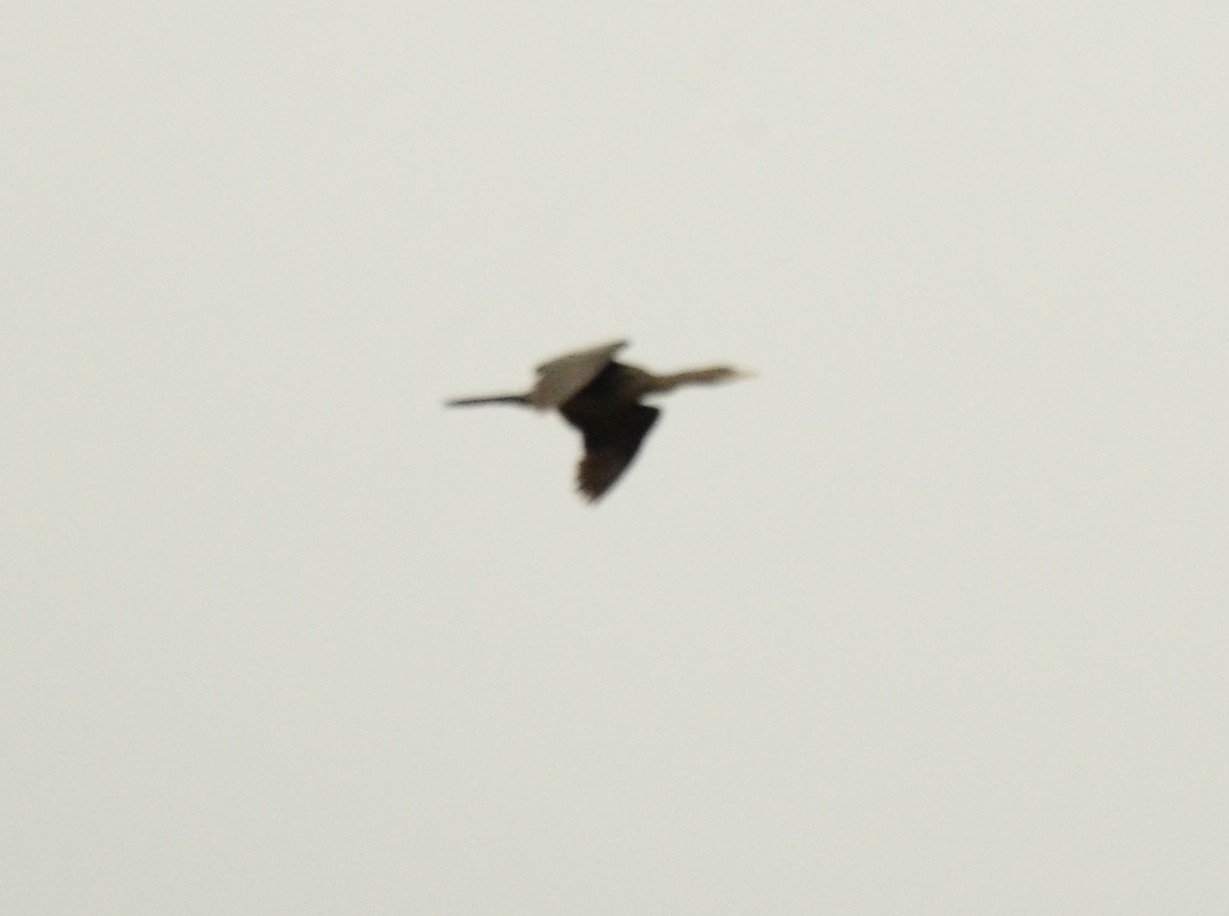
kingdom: Animalia
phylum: Chordata
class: Aves
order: Suliformes
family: Phalacrocoracidae
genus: Microcarbo
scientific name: Microcarbo niger
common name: Little cormorant
